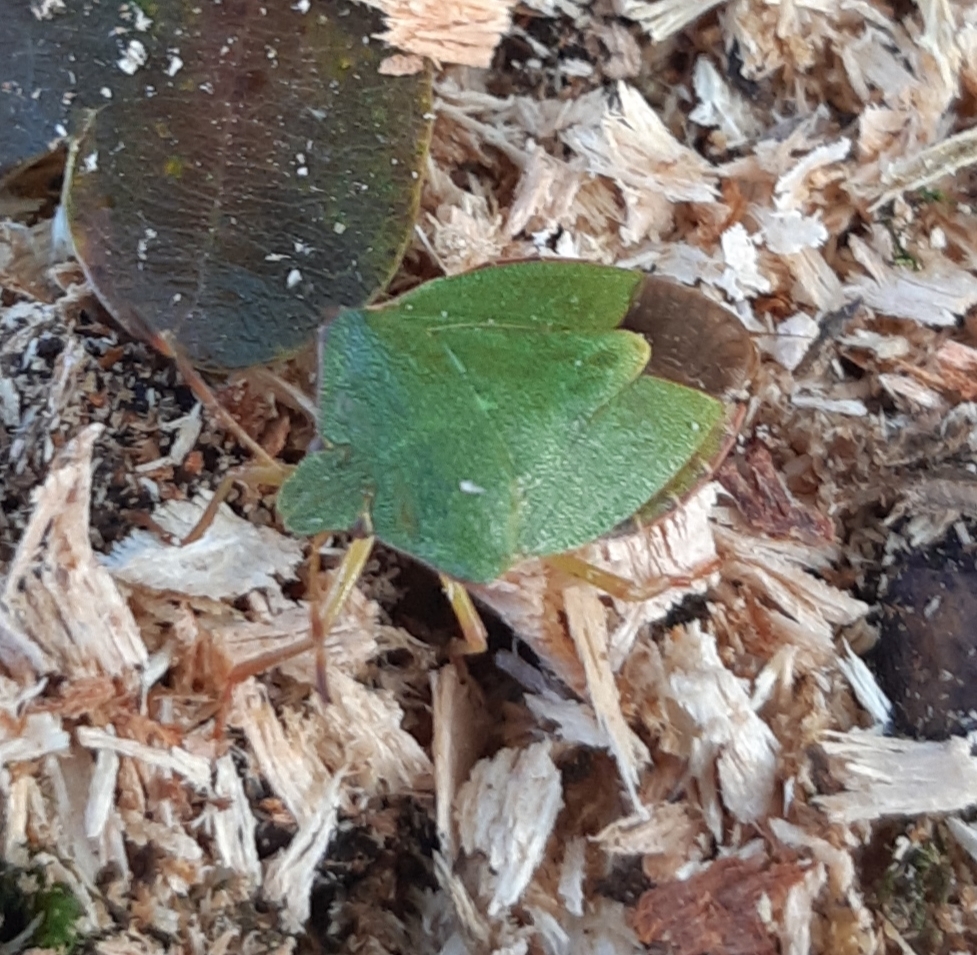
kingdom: Animalia
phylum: Arthropoda
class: Insecta
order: Hemiptera
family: Pentatomidae
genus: Palomena
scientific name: Palomena prasina
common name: Green shieldbug
